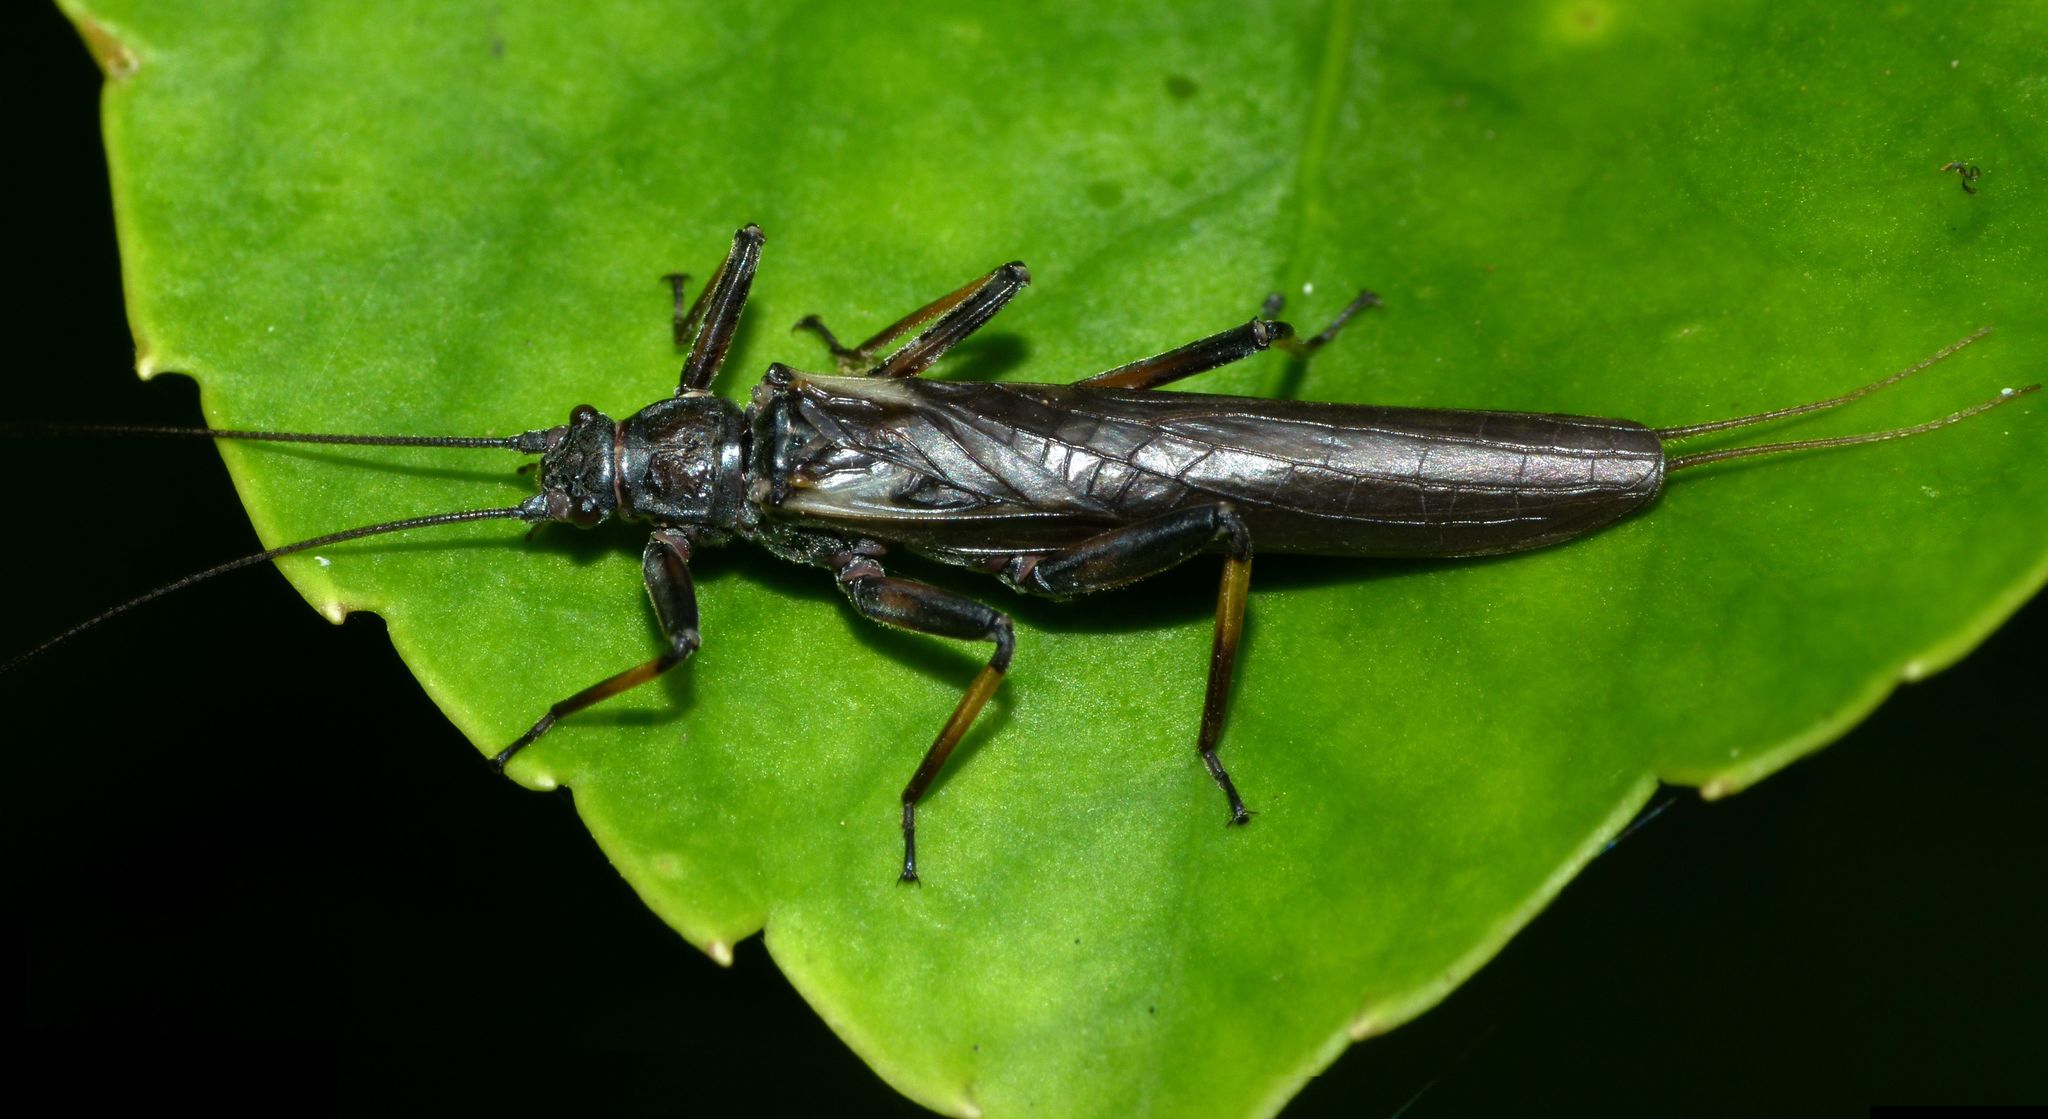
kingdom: Animalia
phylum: Arthropoda
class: Insecta
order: Plecoptera
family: Gripopterygidae
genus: Zelandoperla
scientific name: Zelandoperla tillyardi
